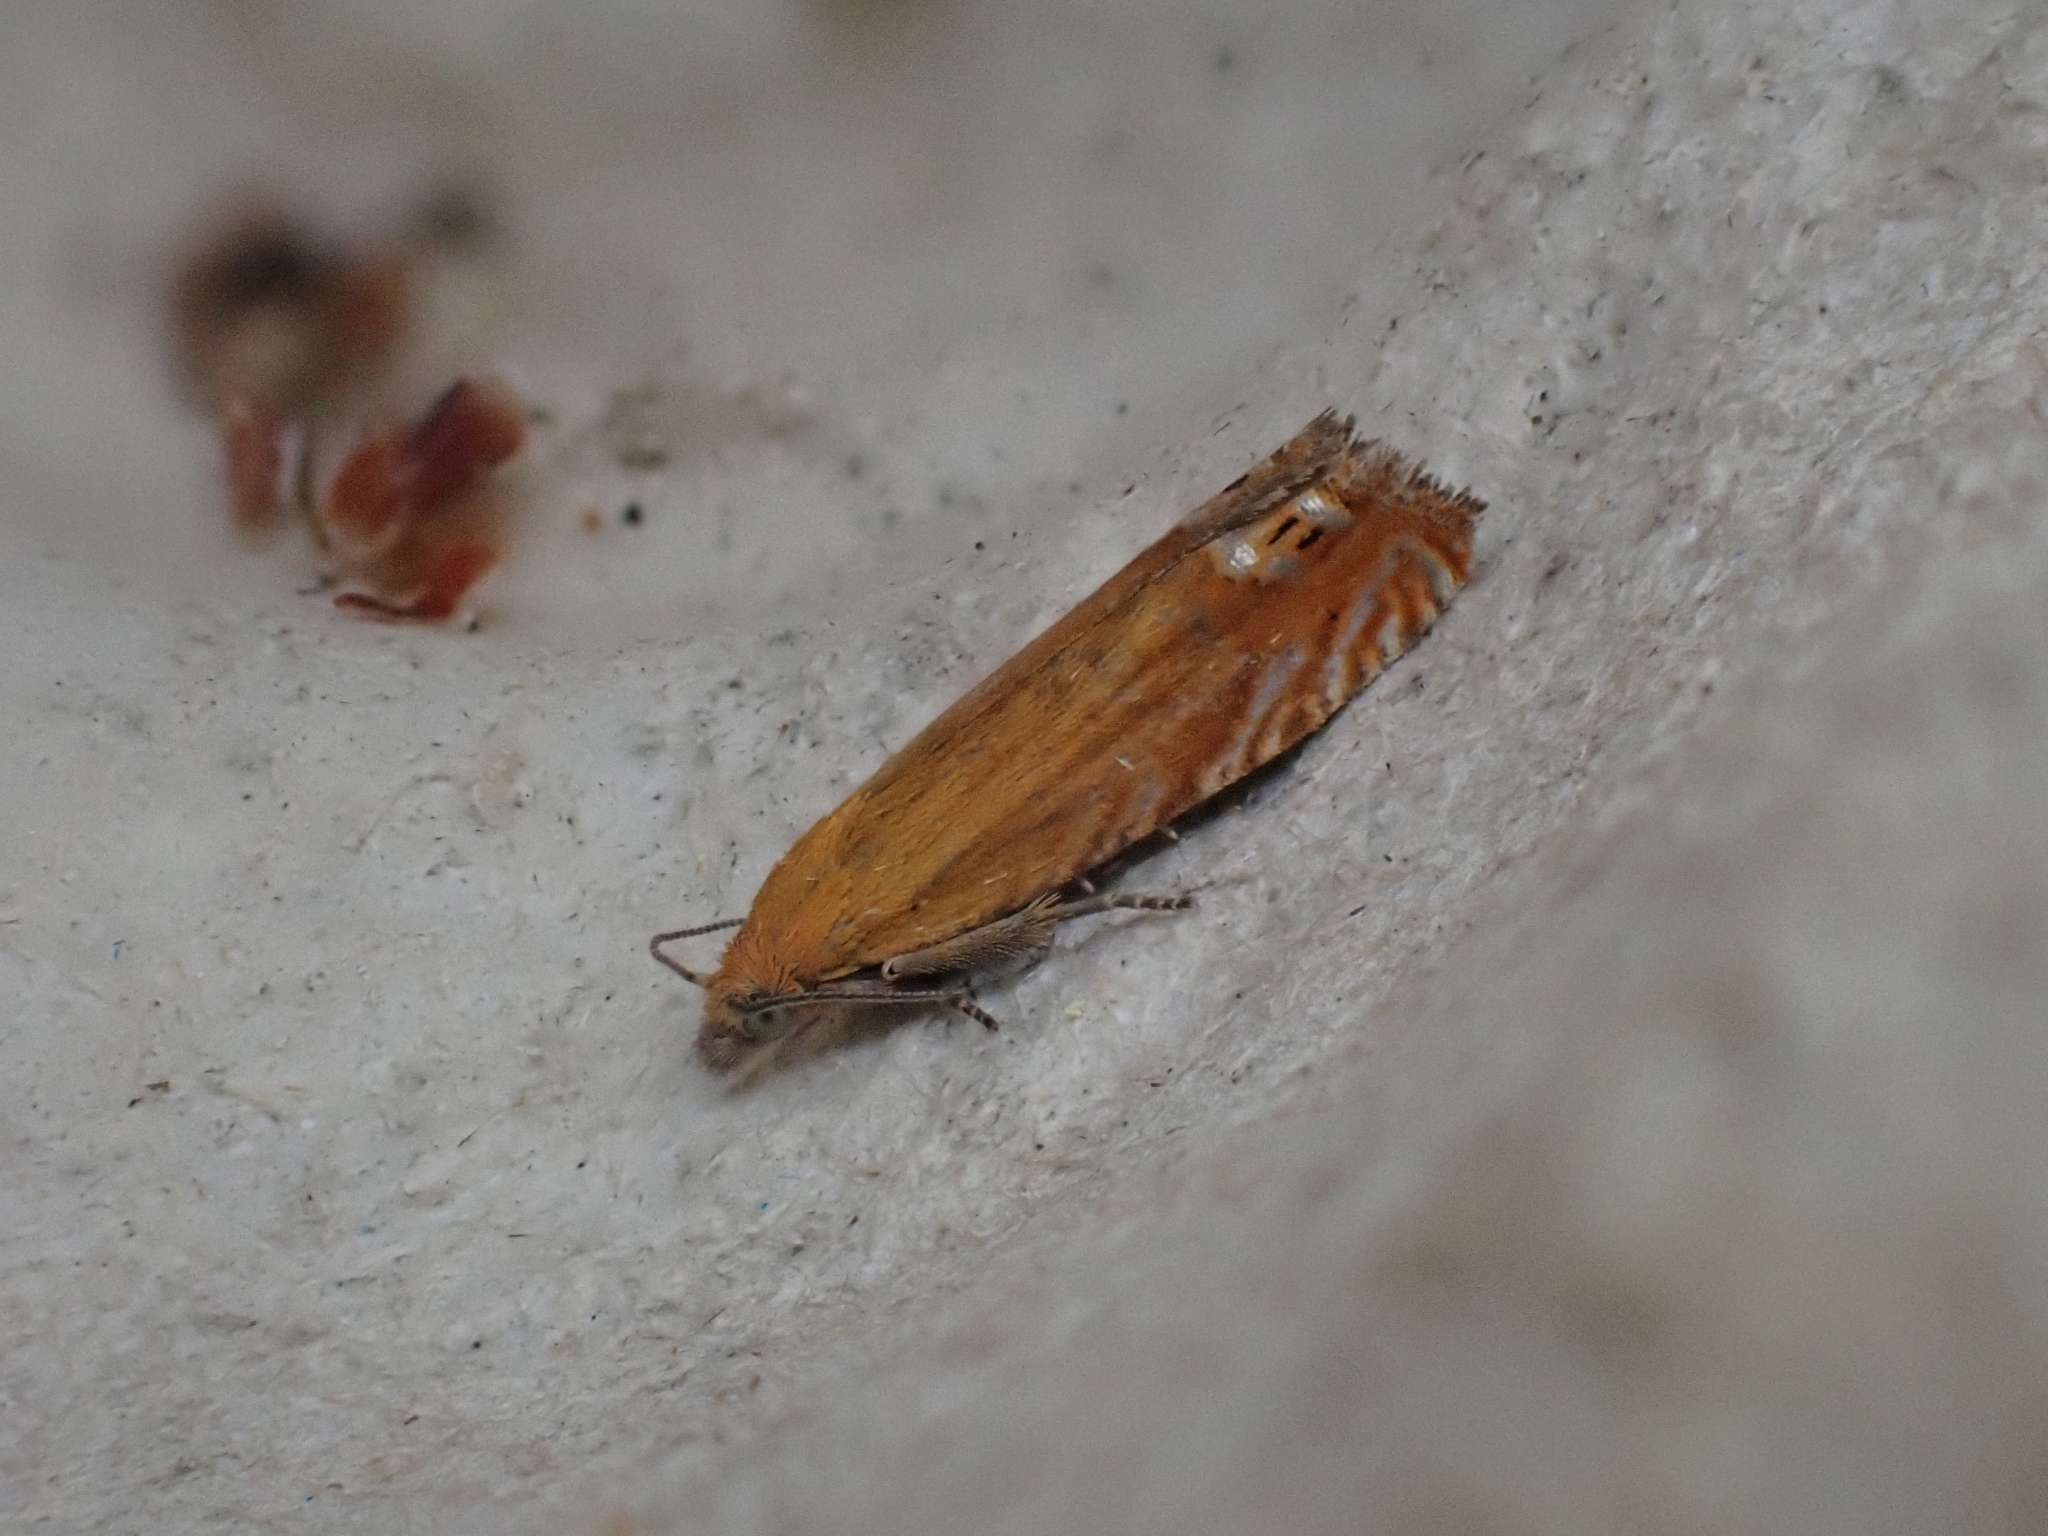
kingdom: Animalia
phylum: Arthropoda
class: Insecta
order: Lepidoptera
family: Tortricidae
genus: Lathronympha
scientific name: Lathronympha strigana
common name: Red piercer
